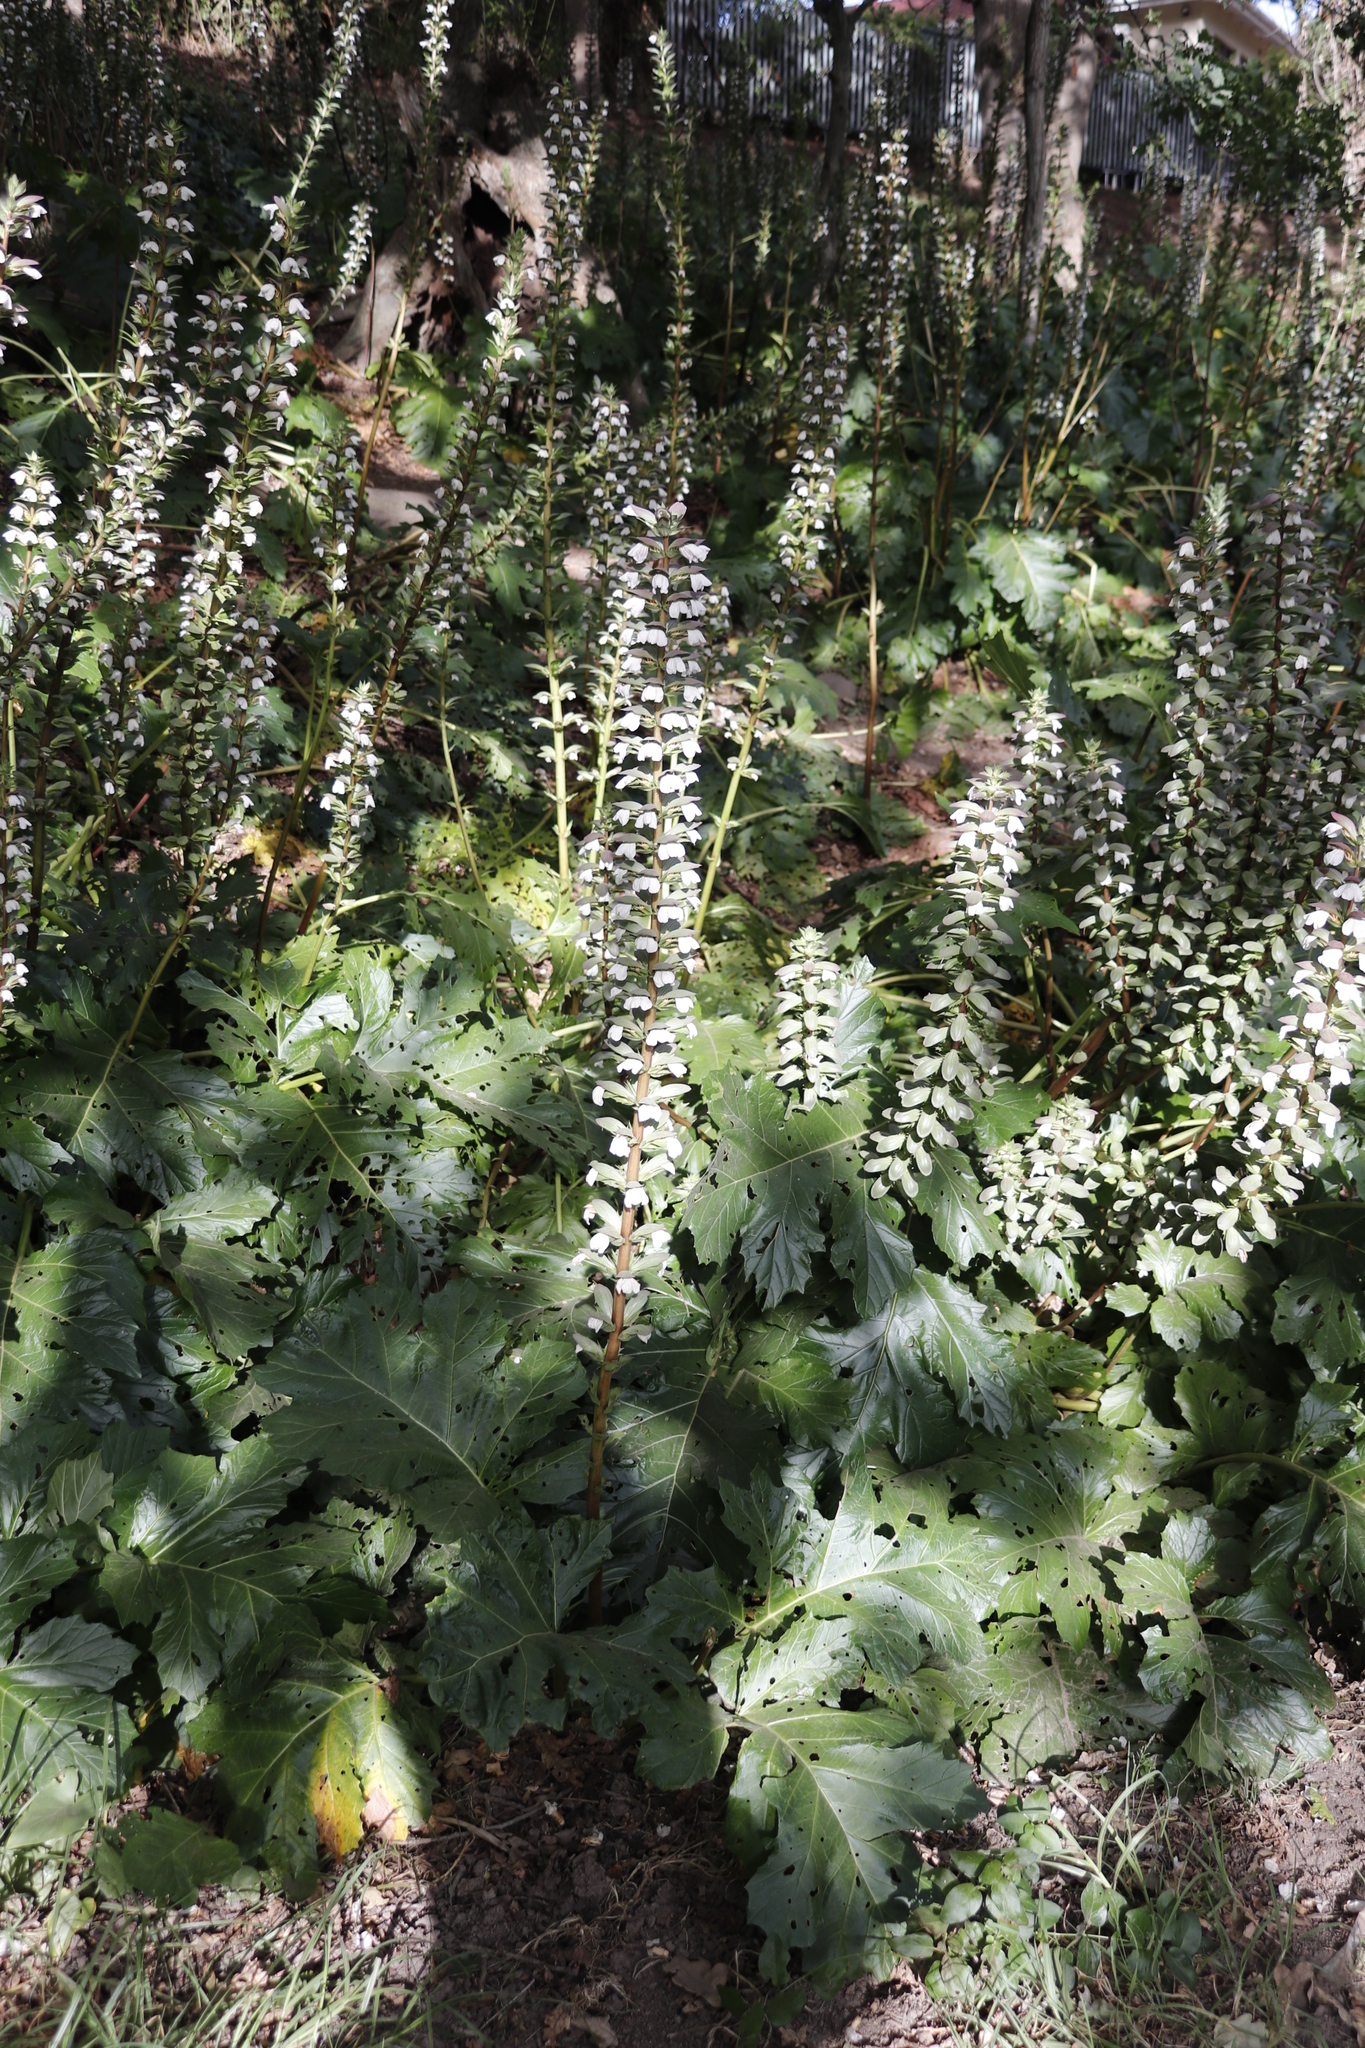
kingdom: Plantae
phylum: Tracheophyta
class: Magnoliopsida
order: Lamiales
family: Acanthaceae
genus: Acanthus
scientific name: Acanthus mollis
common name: Bear's-breech
